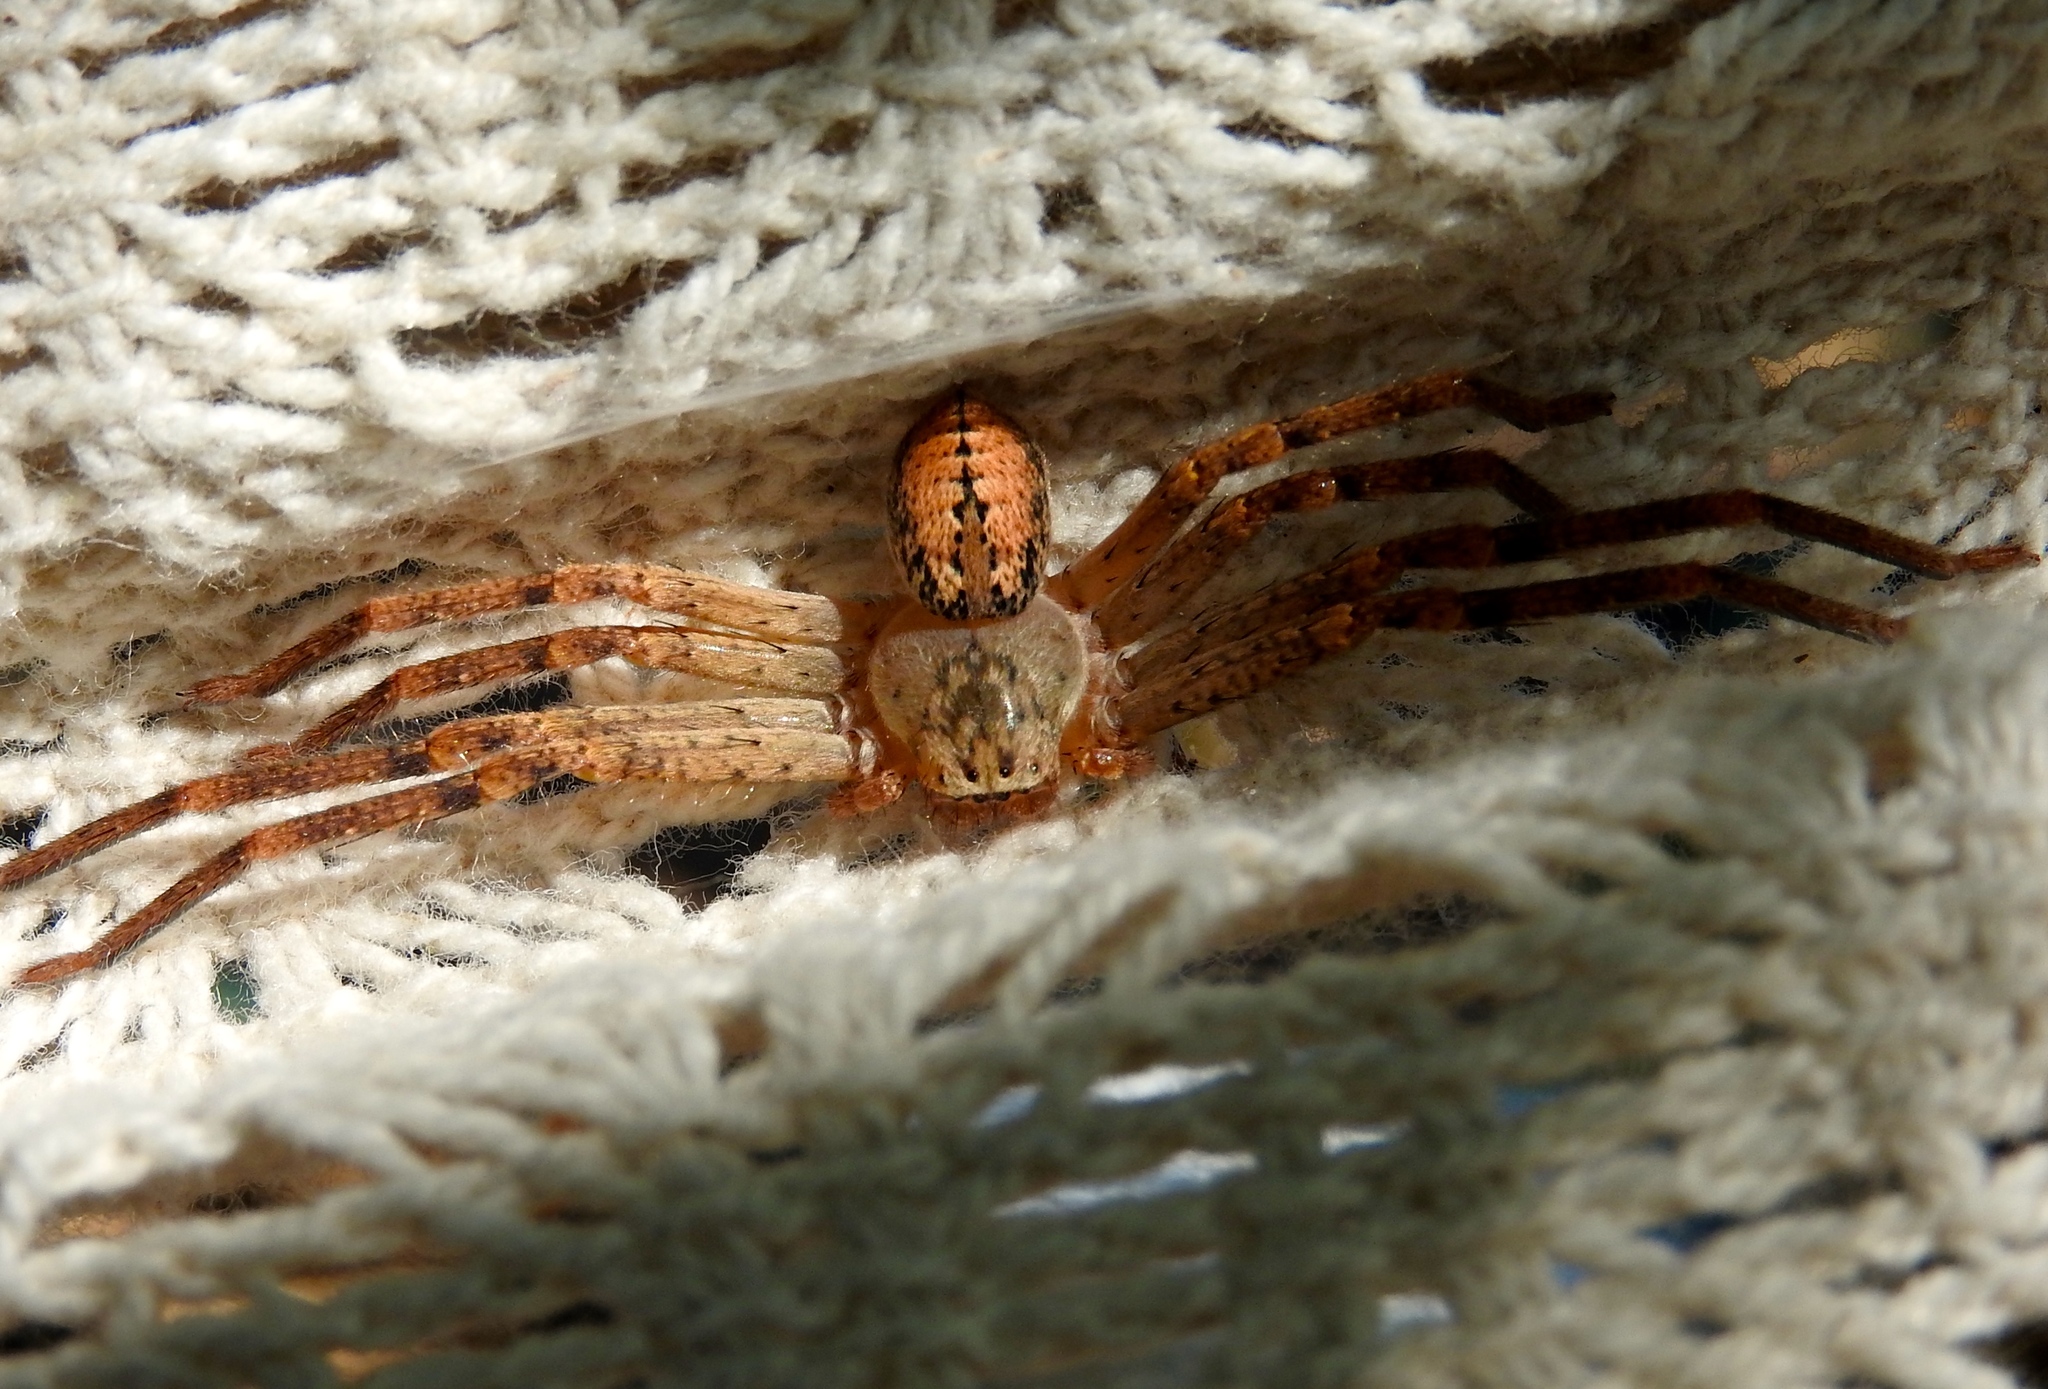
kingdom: Animalia
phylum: Arthropoda
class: Arachnida
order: Araneae
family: Sparassidae
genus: Curicaberis
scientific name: Curicaberis culiacan
